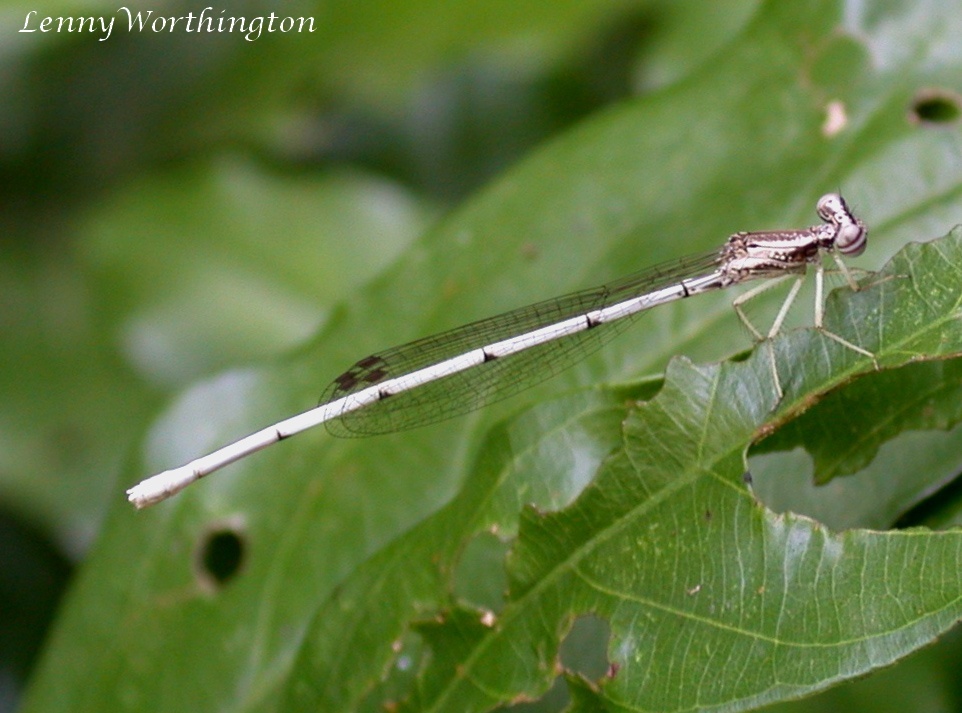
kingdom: Animalia
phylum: Arthropoda
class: Insecta
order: Odonata
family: Platycnemididae
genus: Copera
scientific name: Copera marginipes
